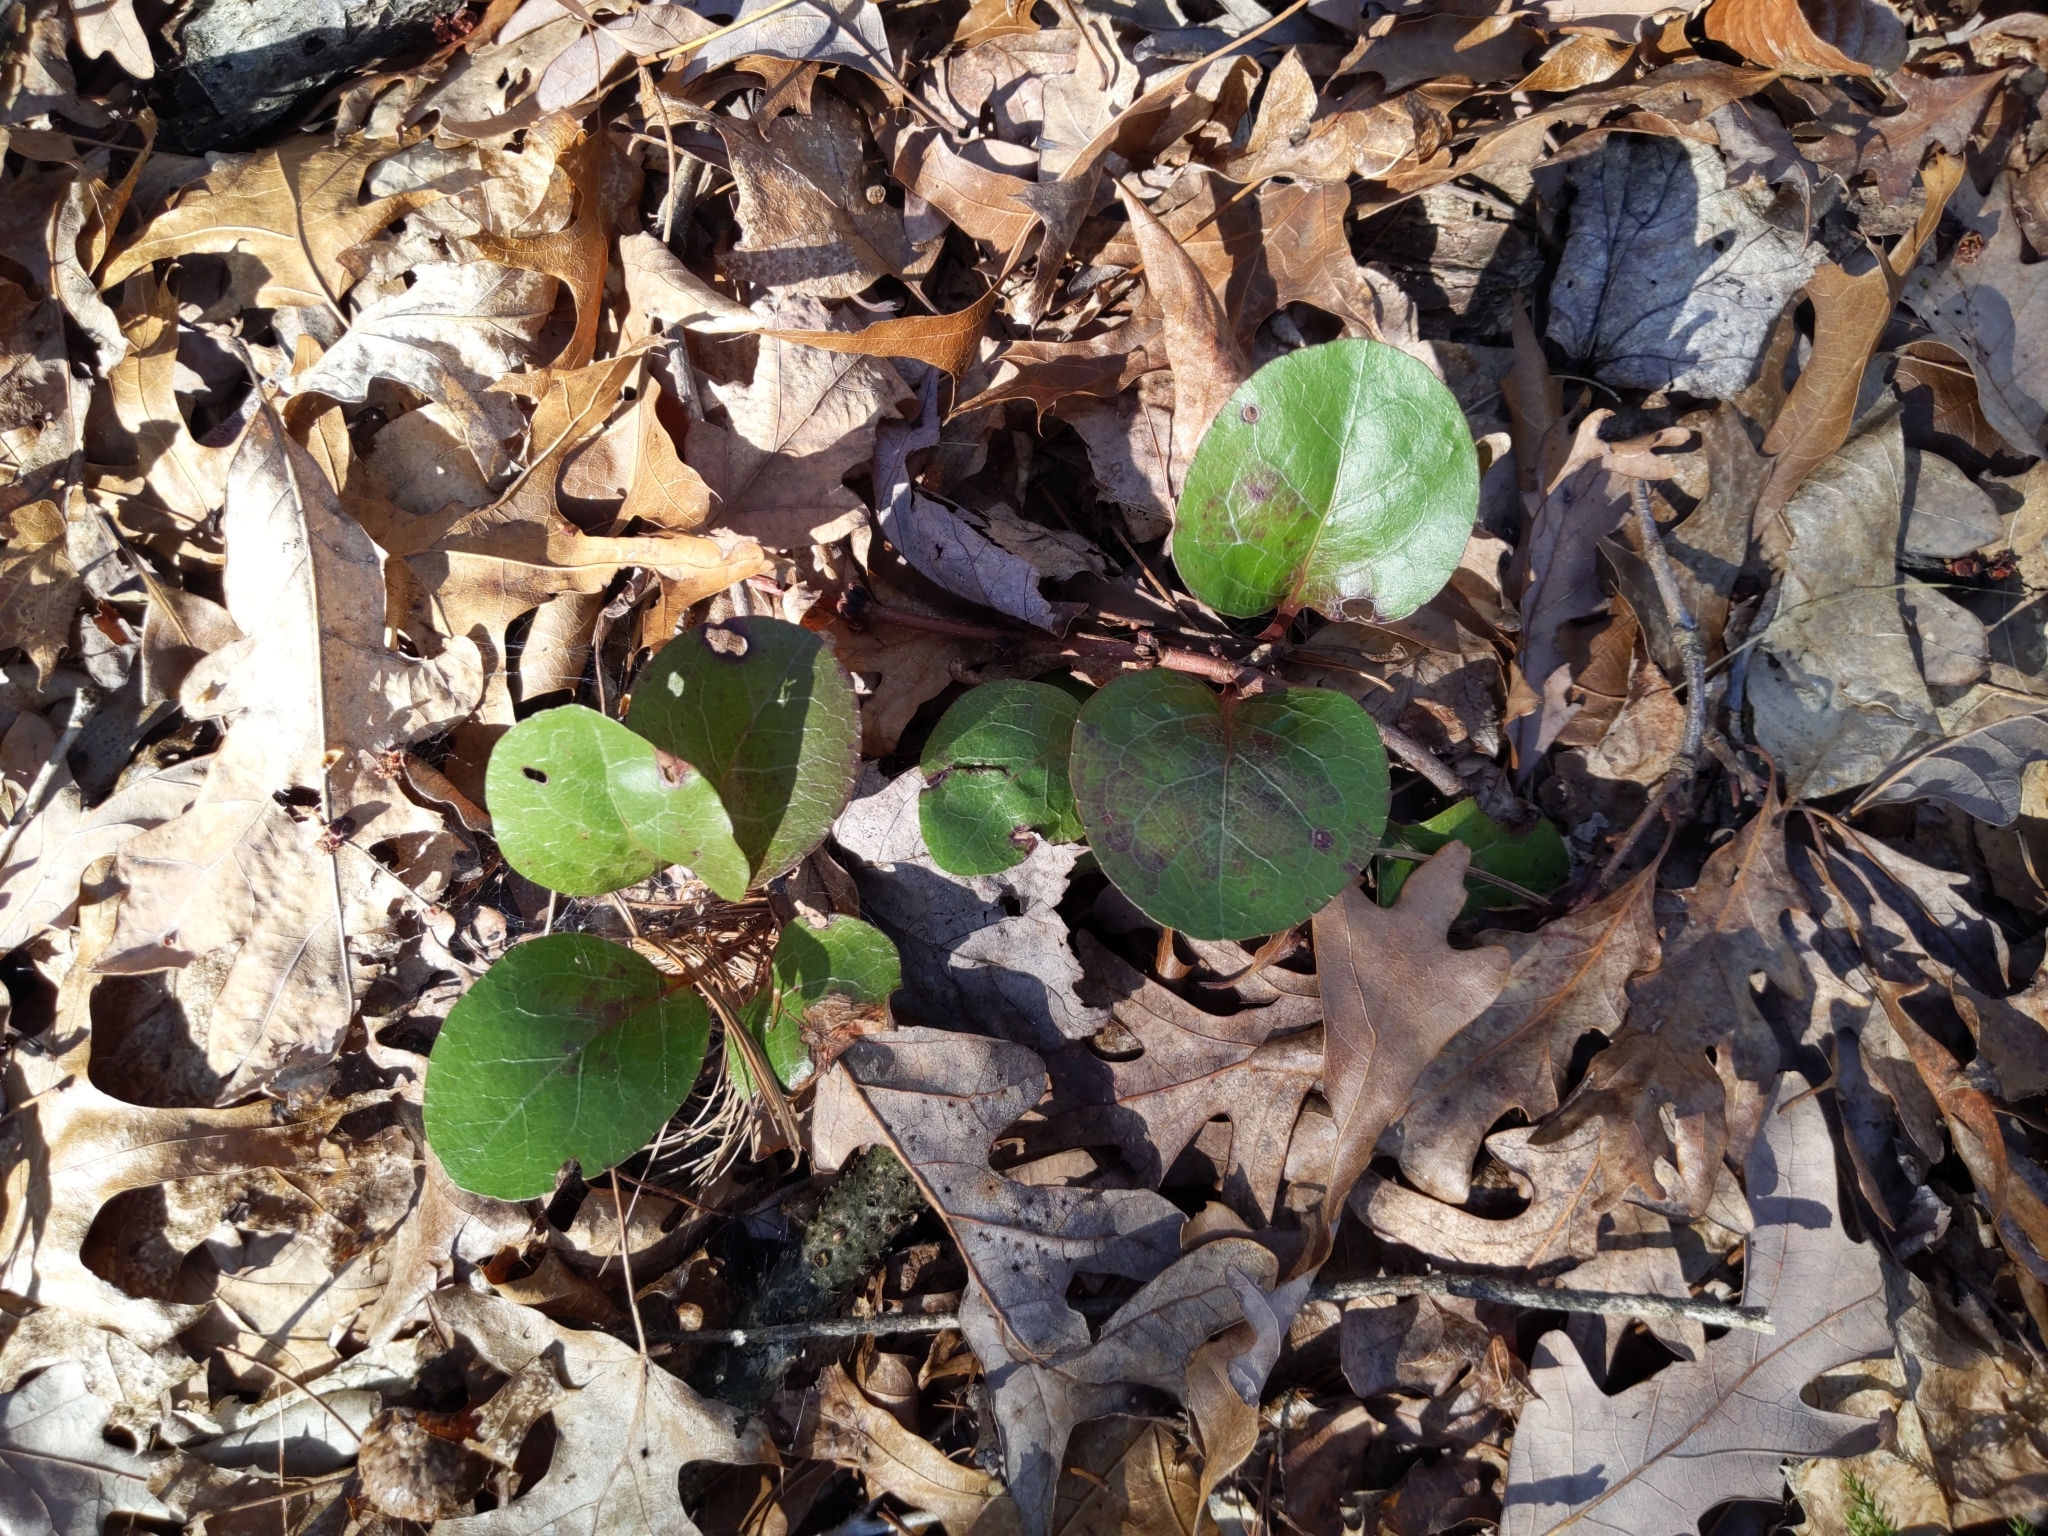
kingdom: Plantae
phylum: Tracheophyta
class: Magnoliopsida
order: Ericales
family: Ericaceae
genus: Pyrola
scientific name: Pyrola americana
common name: American wintergreen
